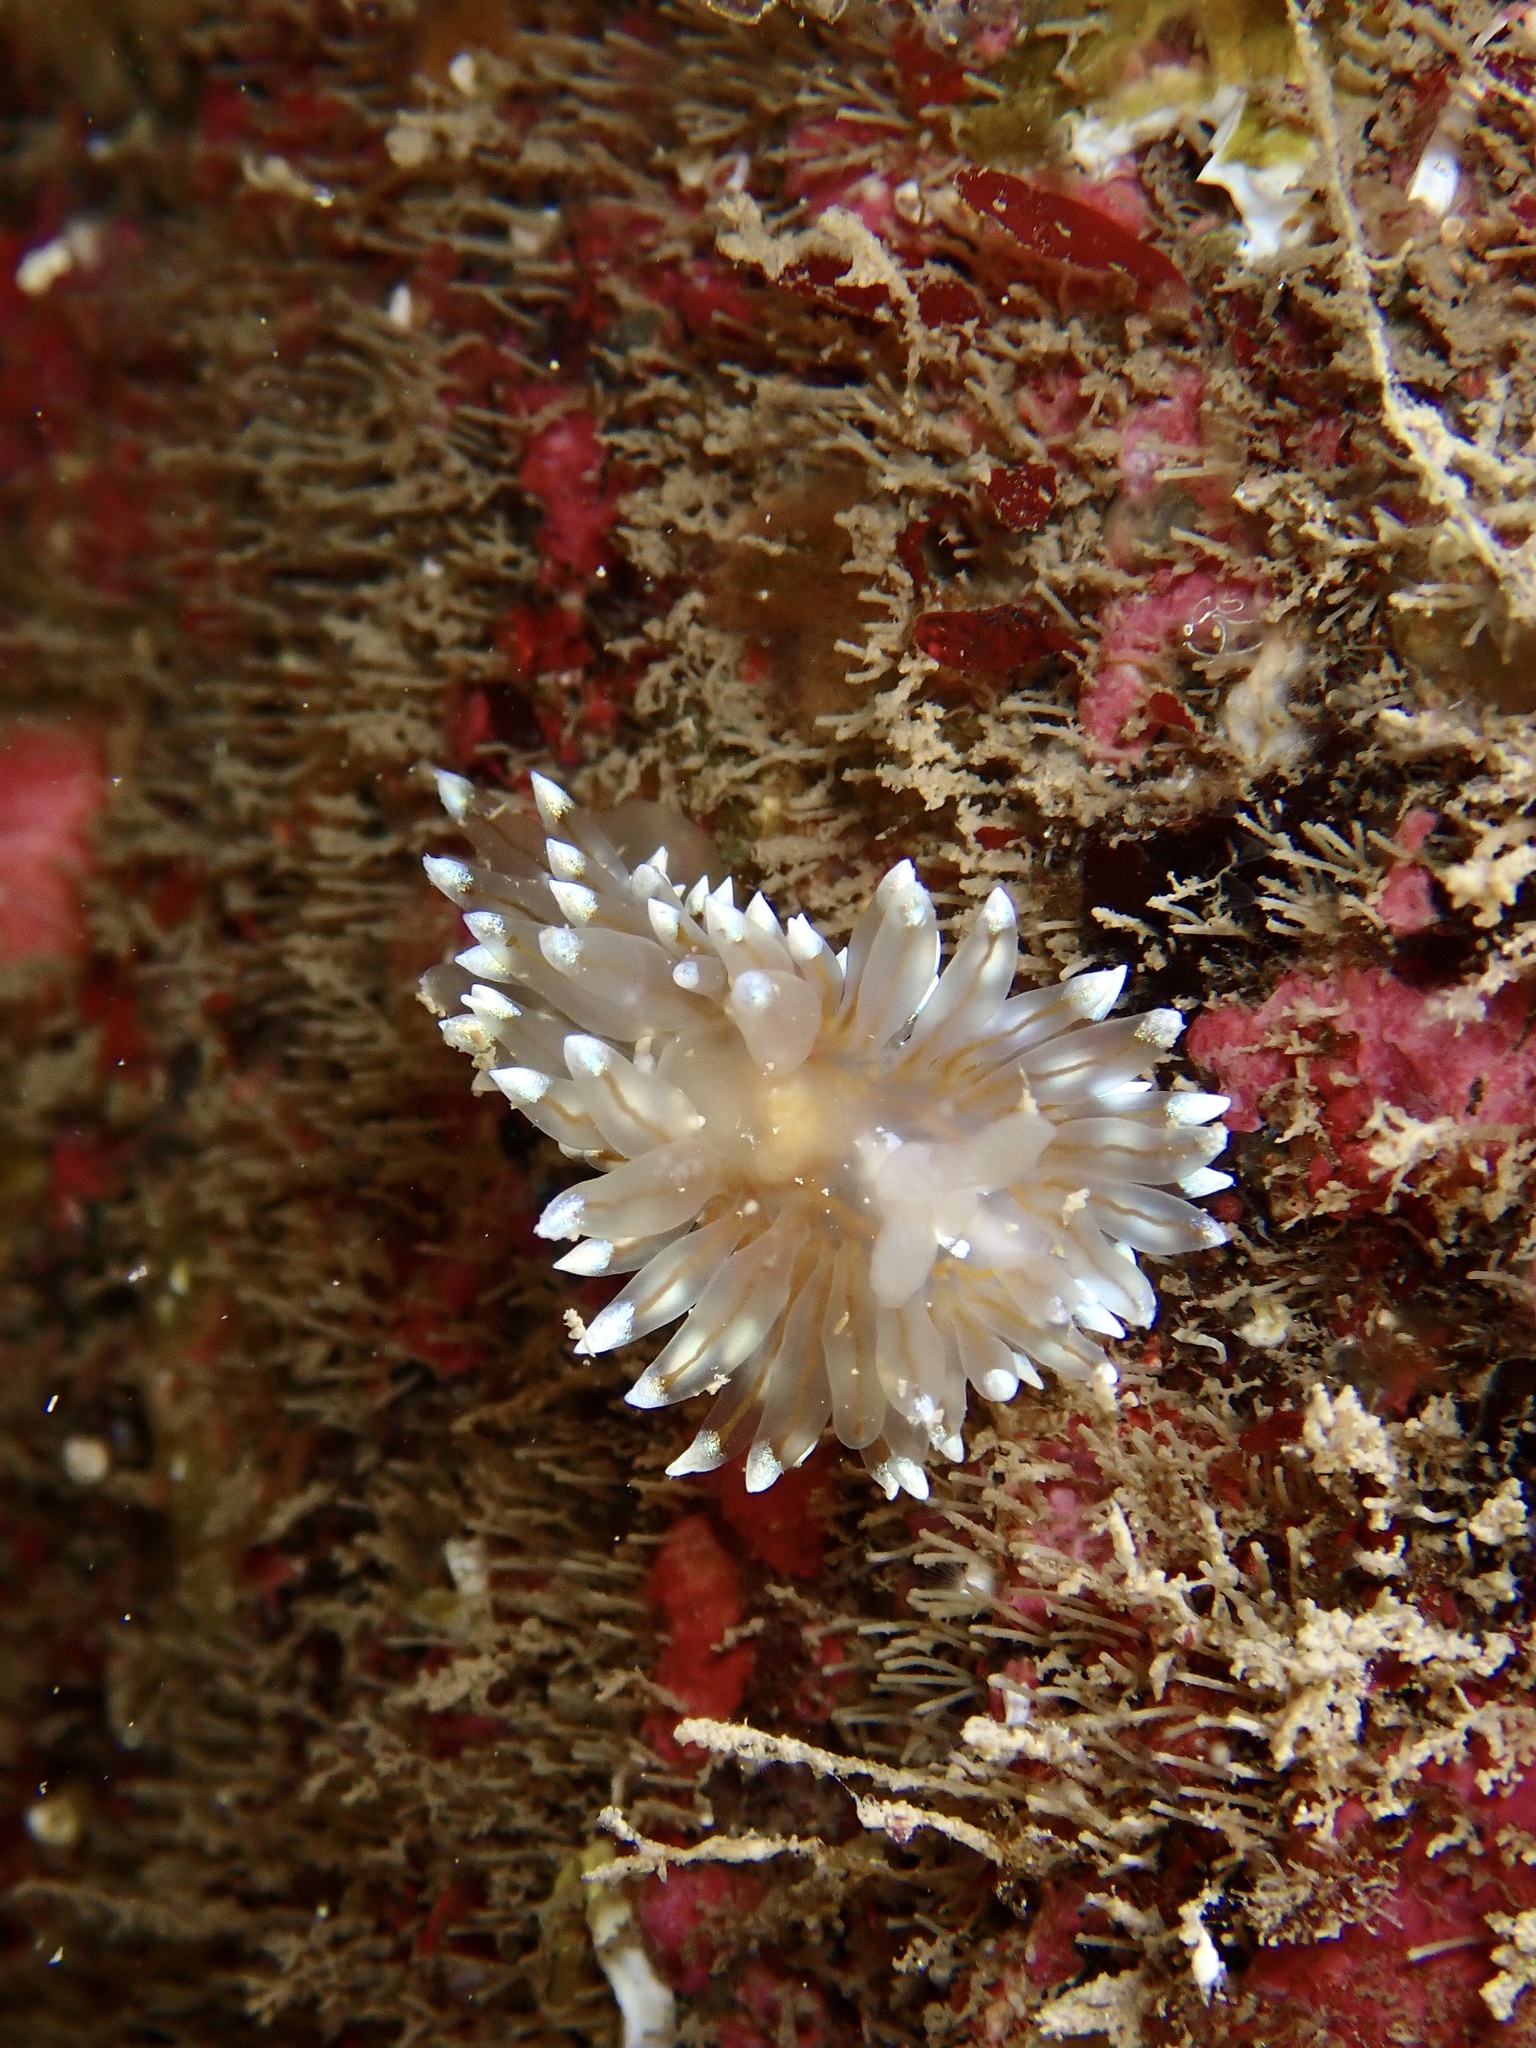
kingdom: Animalia
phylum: Mollusca
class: Gastropoda
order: Nudibranchia
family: Janolidae
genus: Antiopella
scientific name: Antiopella cristata
